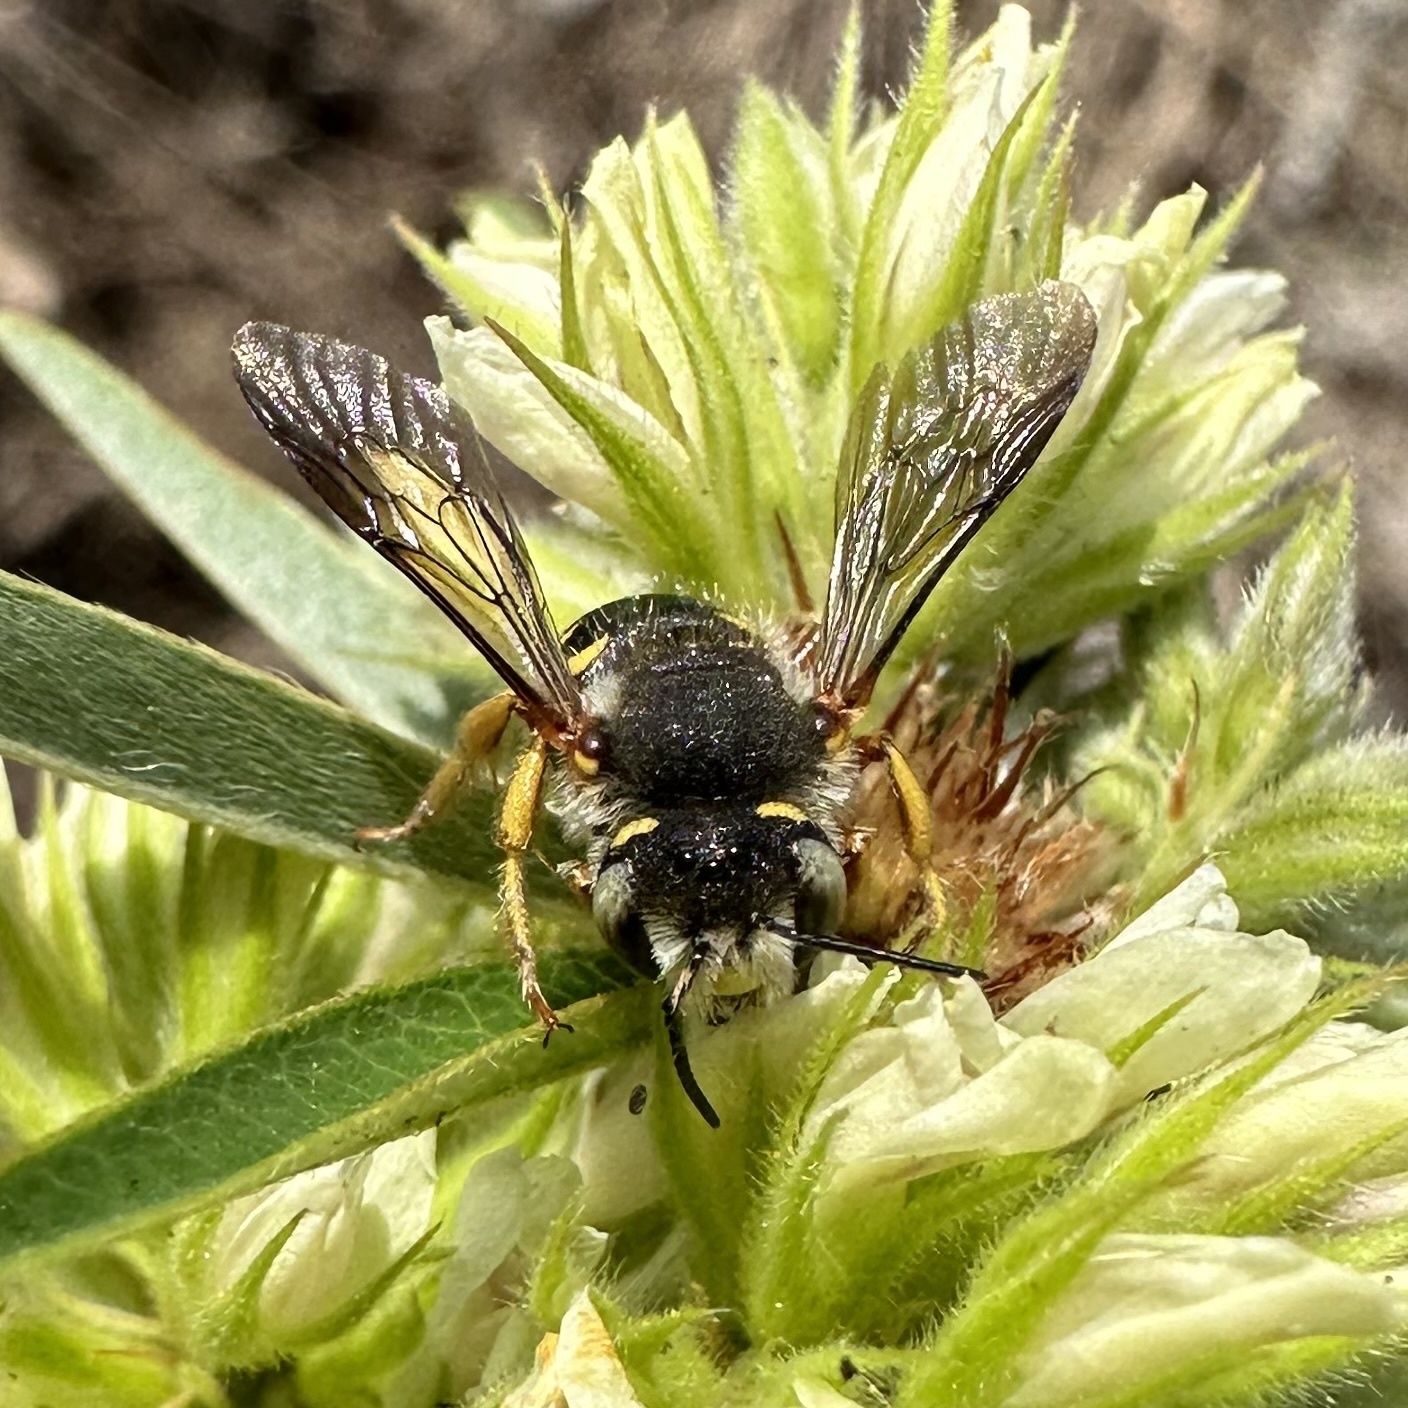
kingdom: Animalia
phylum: Arthropoda
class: Insecta
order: Hymenoptera
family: Megachilidae
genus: Anthidium
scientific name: Anthidium oblongatum
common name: Oblong wool carder bee
